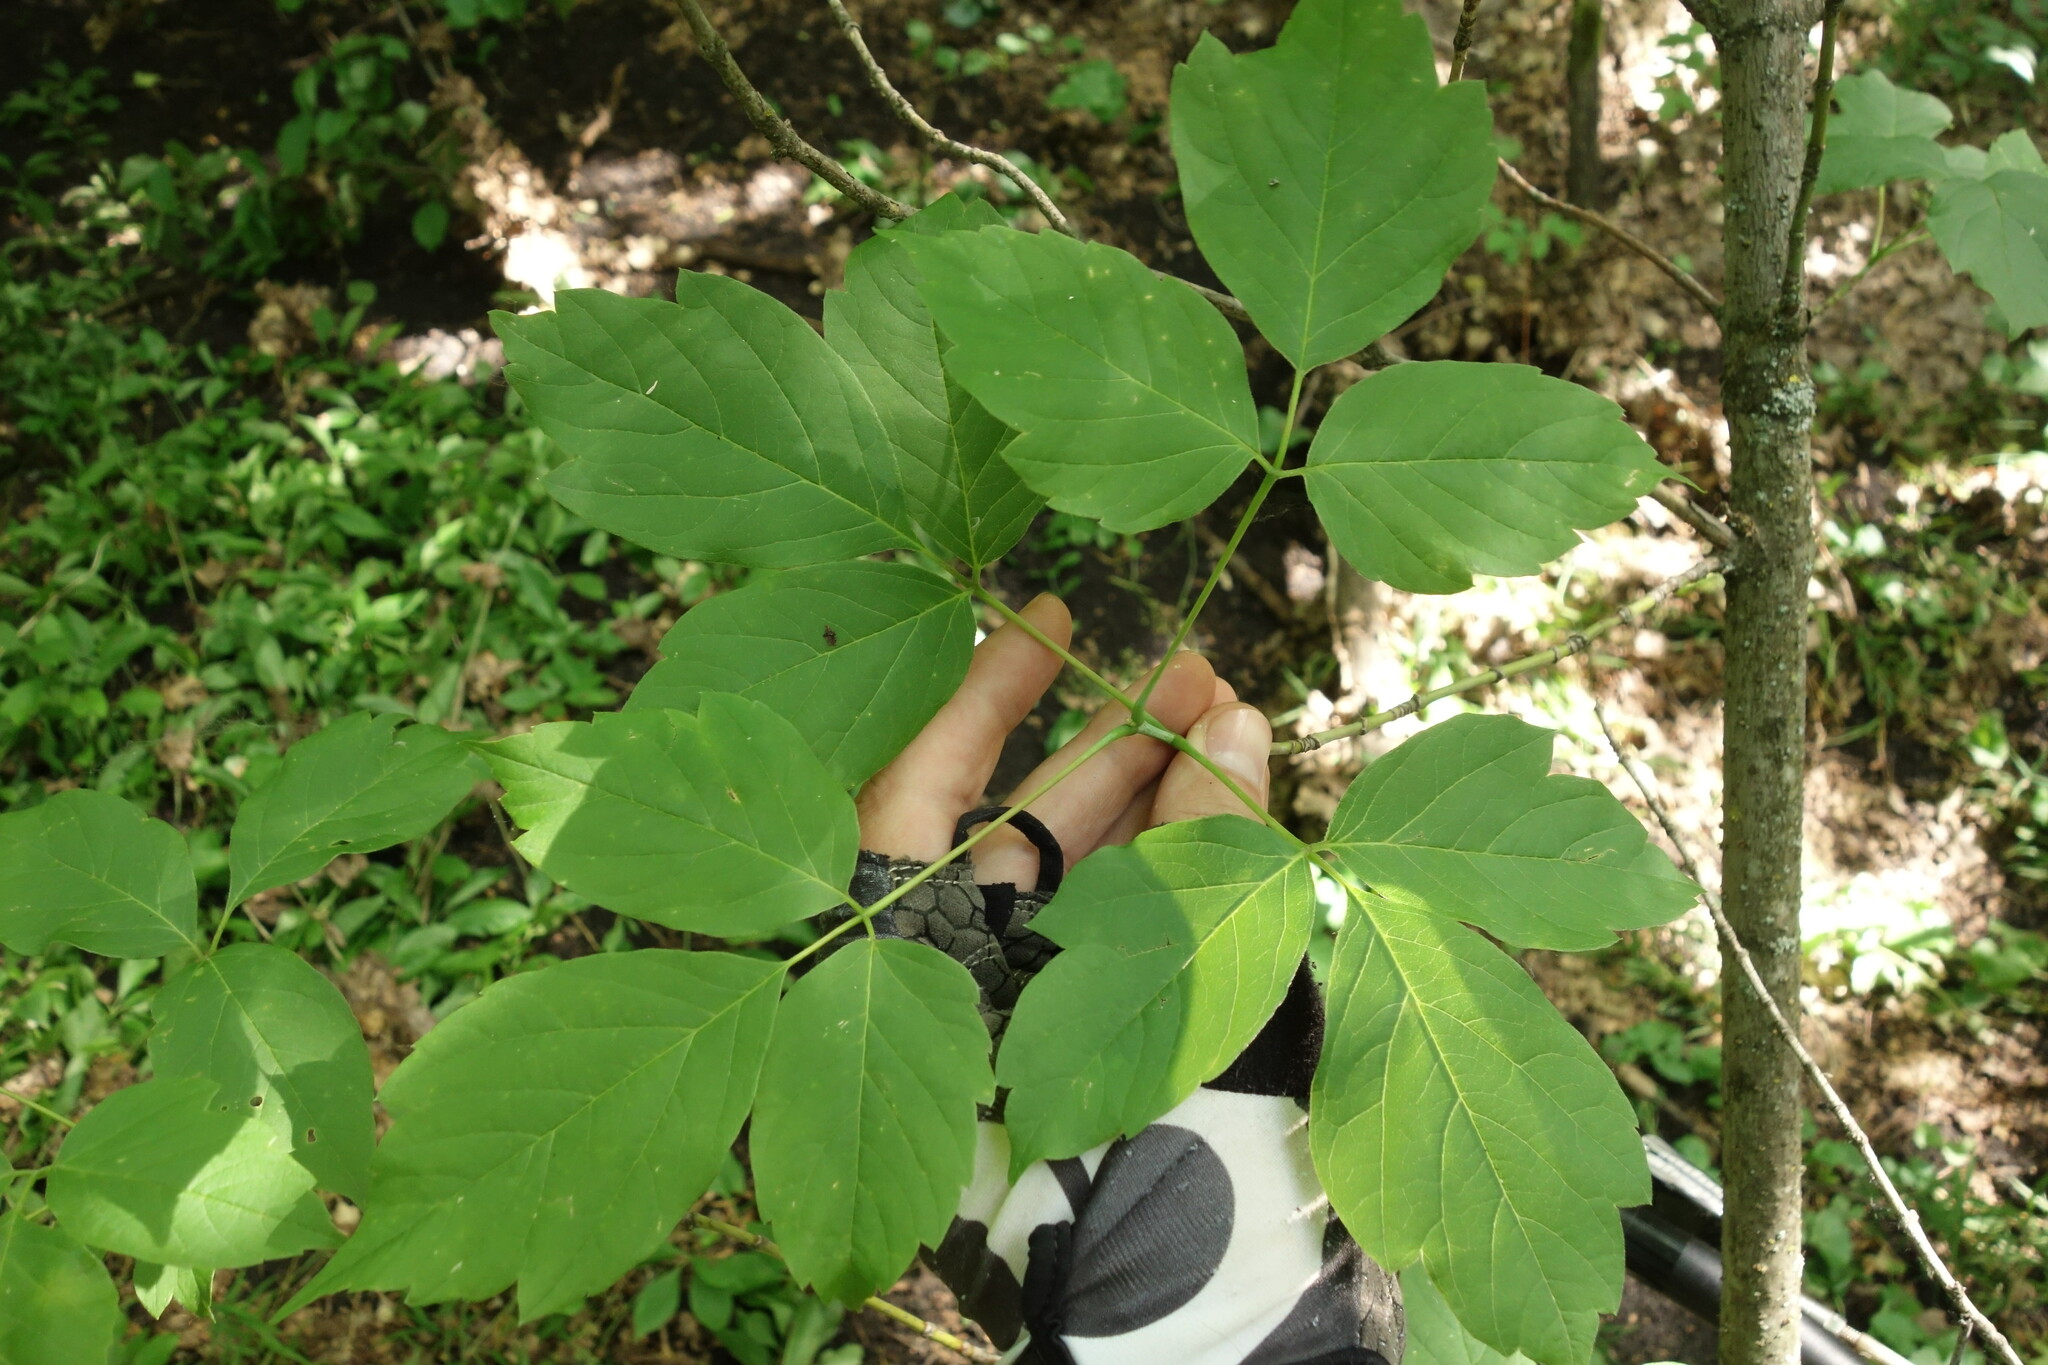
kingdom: Plantae
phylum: Tracheophyta
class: Magnoliopsida
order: Sapindales
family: Sapindaceae
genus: Acer
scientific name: Acer negundo
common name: Ashleaf maple
